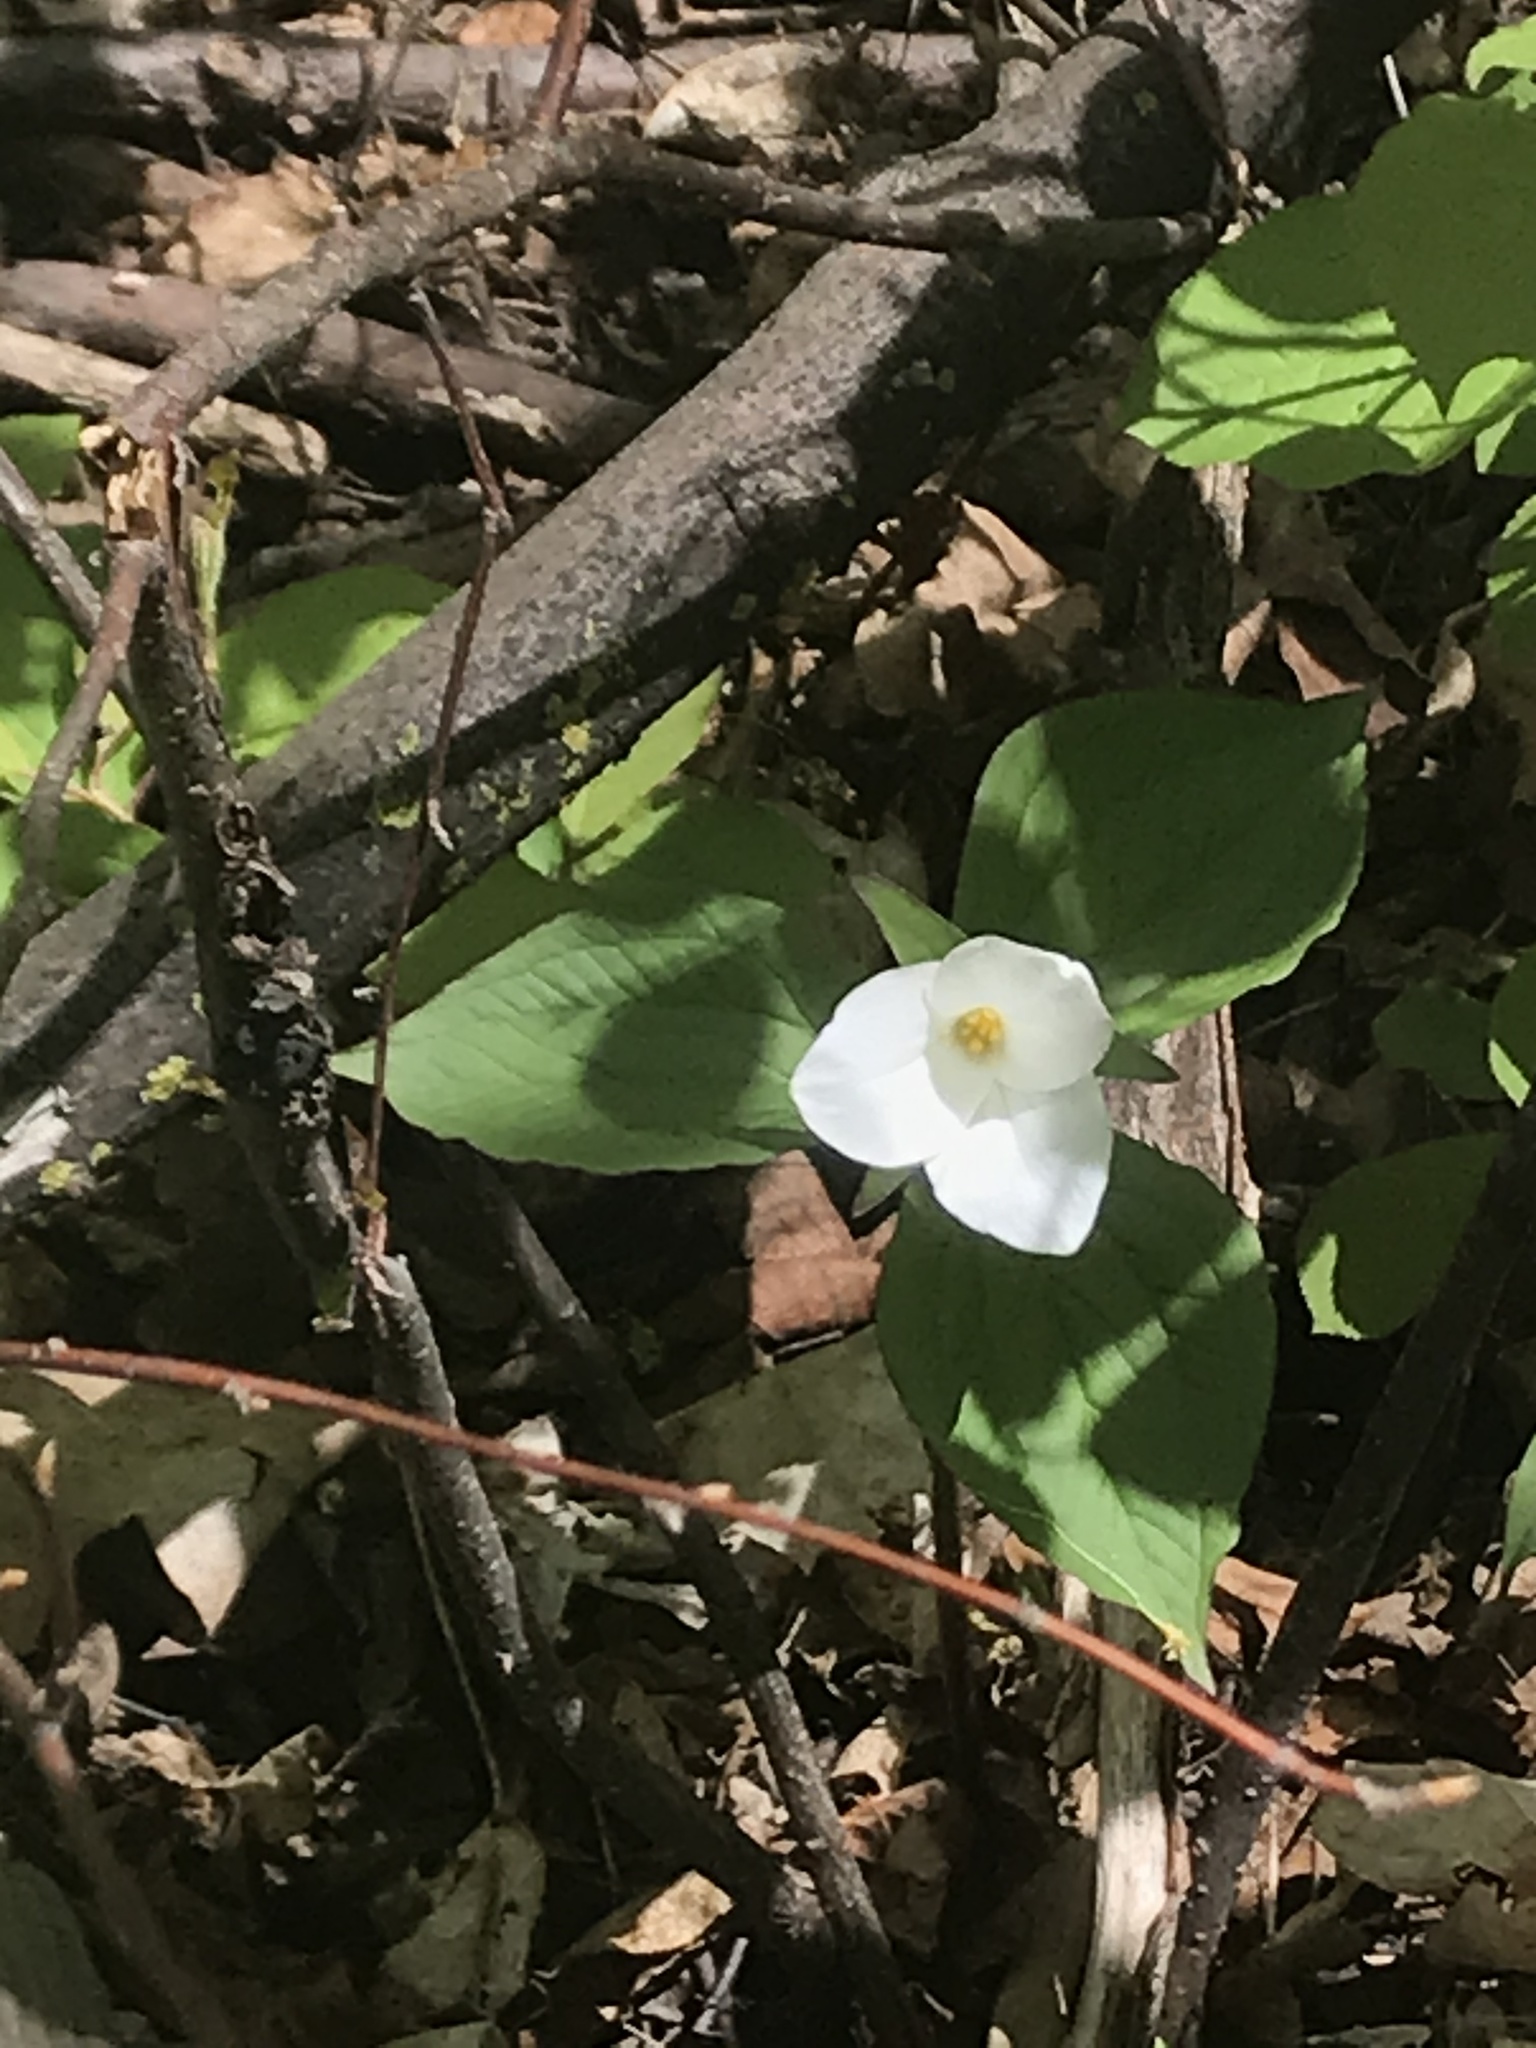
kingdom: Plantae
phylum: Tracheophyta
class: Liliopsida
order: Liliales
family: Melanthiaceae
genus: Trillium
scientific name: Trillium grandiflorum
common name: Great white trillium
